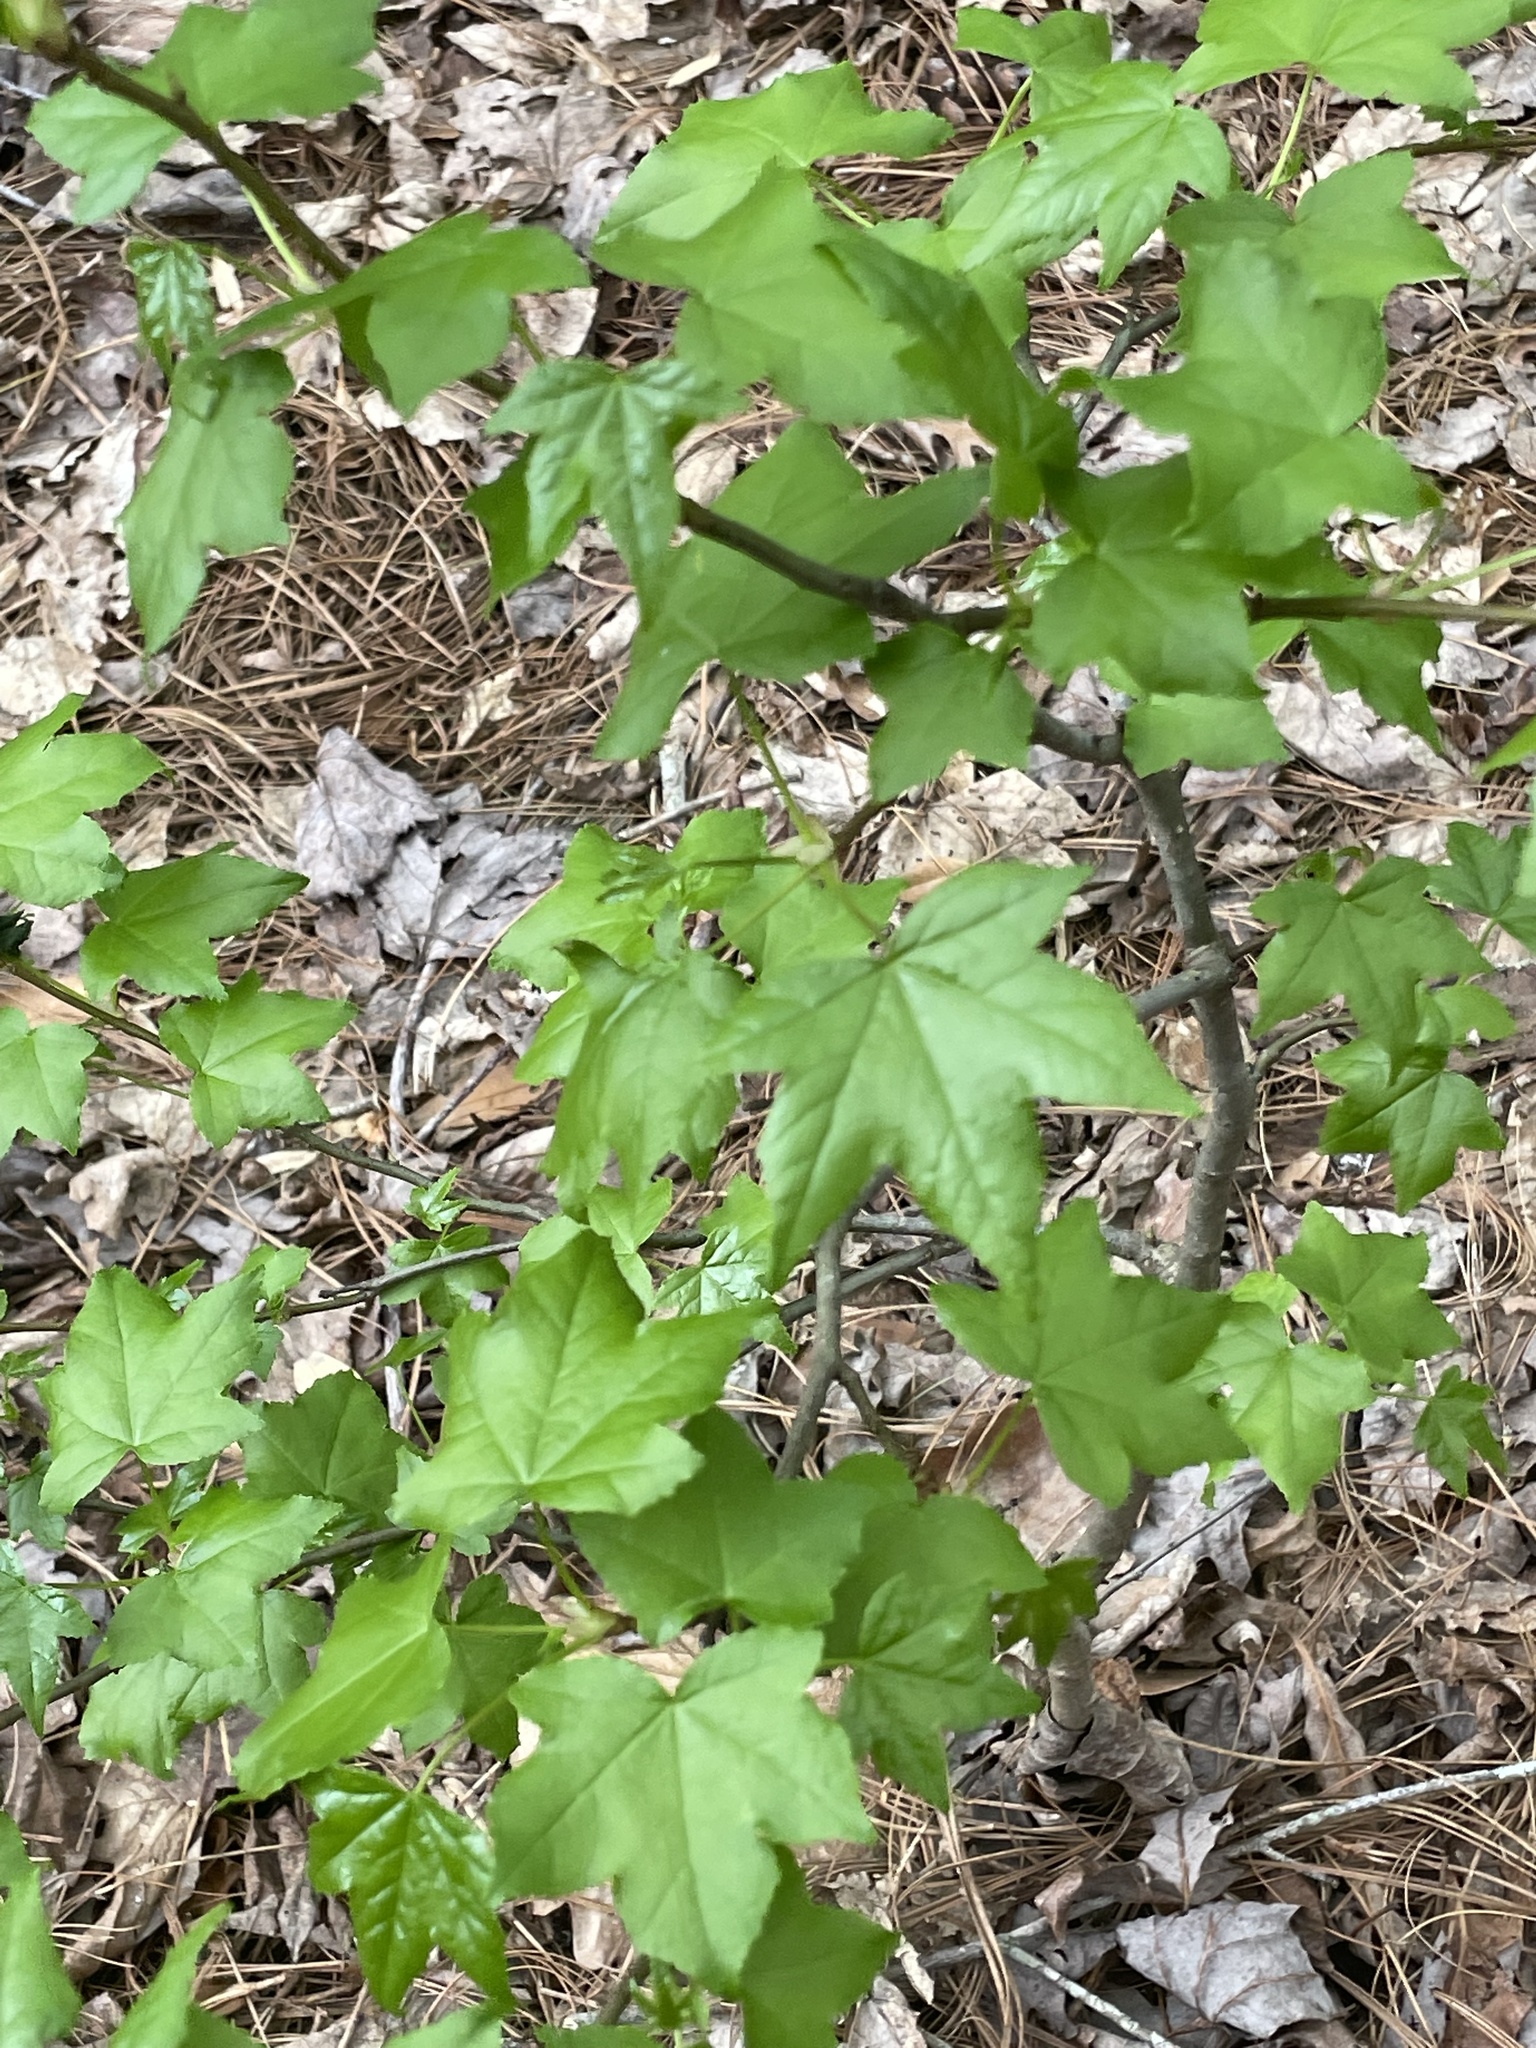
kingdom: Plantae
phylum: Tracheophyta
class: Magnoliopsida
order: Saxifragales
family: Altingiaceae
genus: Liquidambar
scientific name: Liquidambar styraciflua
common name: Sweet gum
